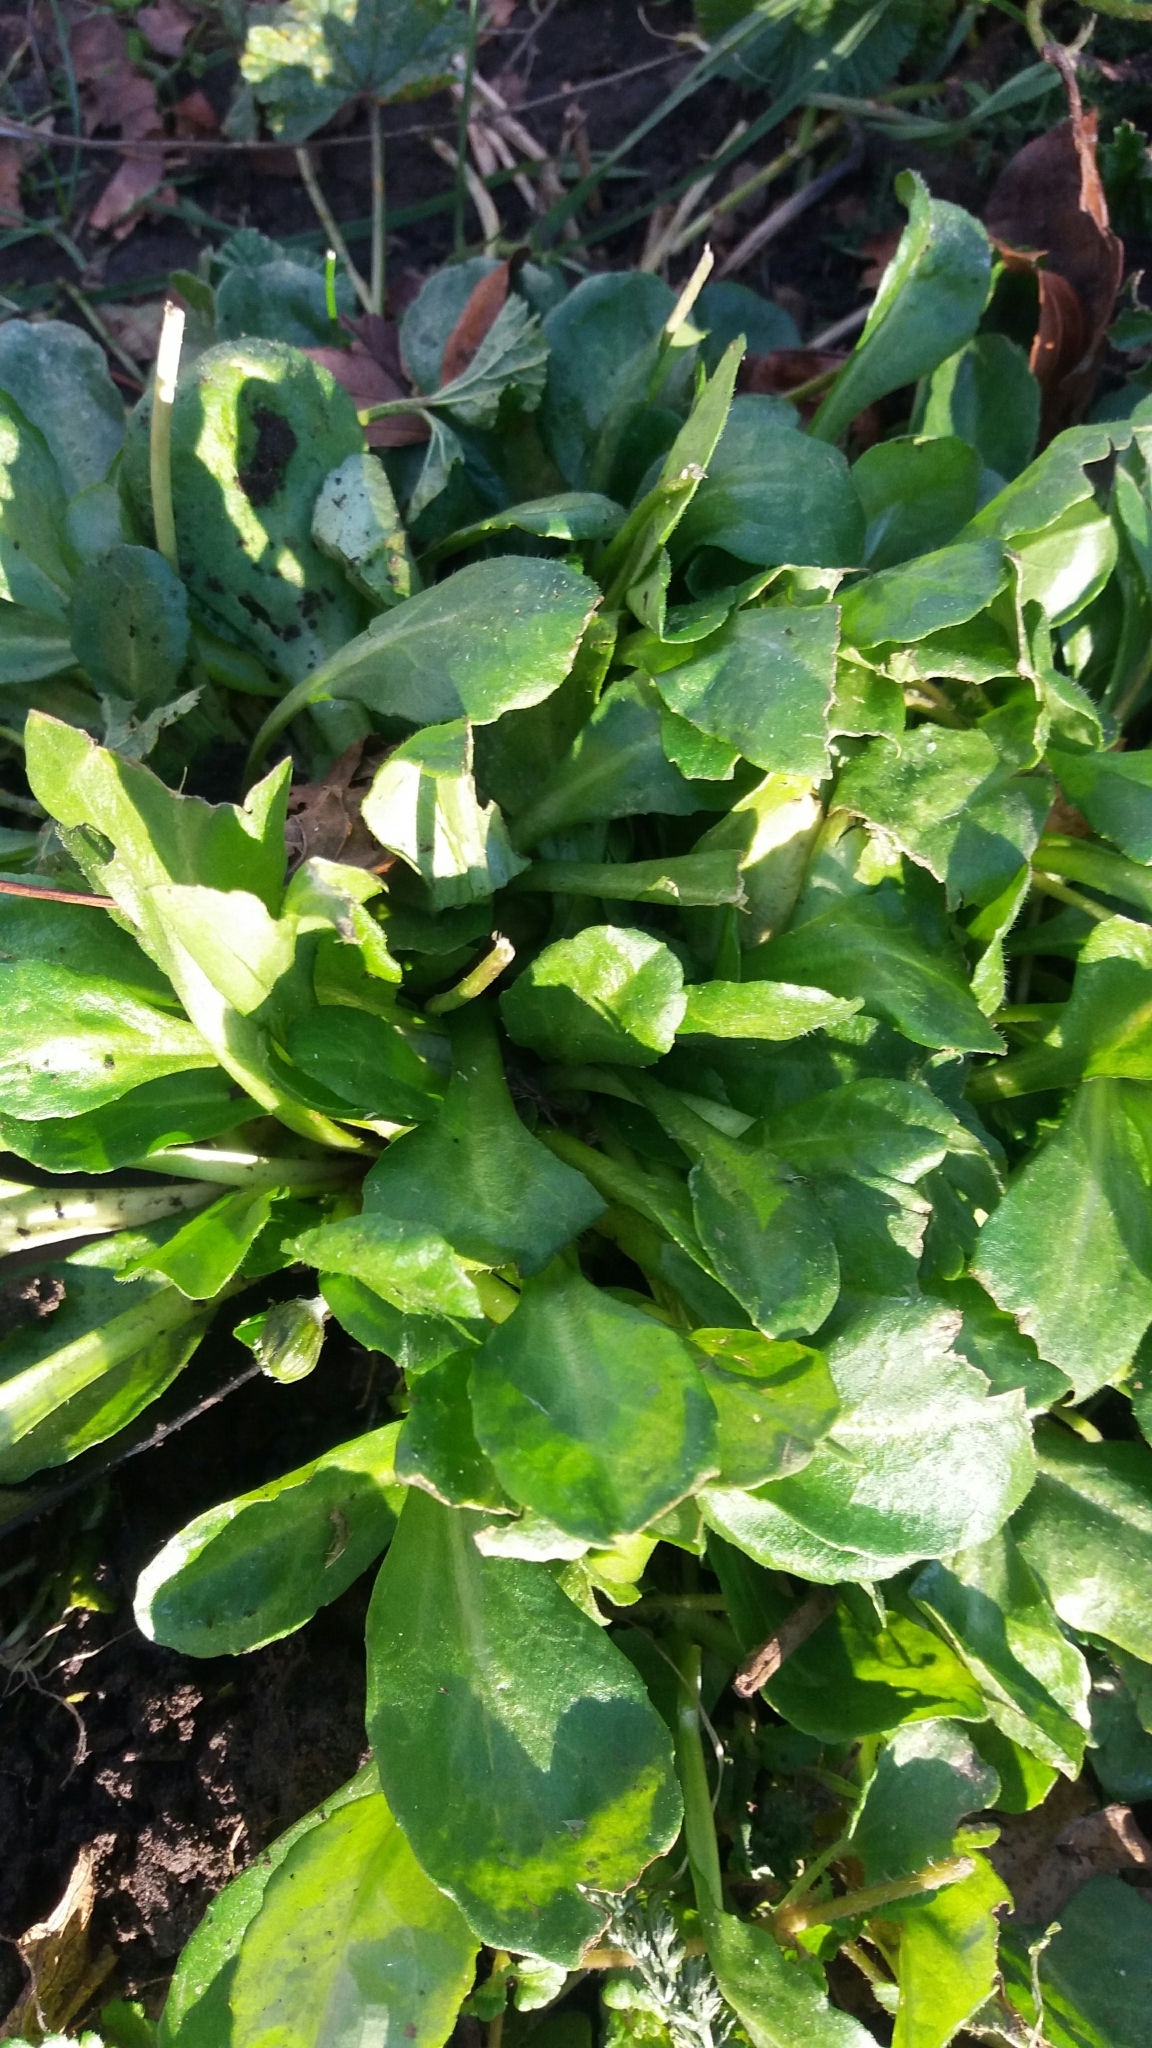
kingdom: Plantae
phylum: Tracheophyta
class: Magnoliopsida
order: Asterales
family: Asteraceae
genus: Bellis
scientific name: Bellis perennis
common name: Lawndaisy
